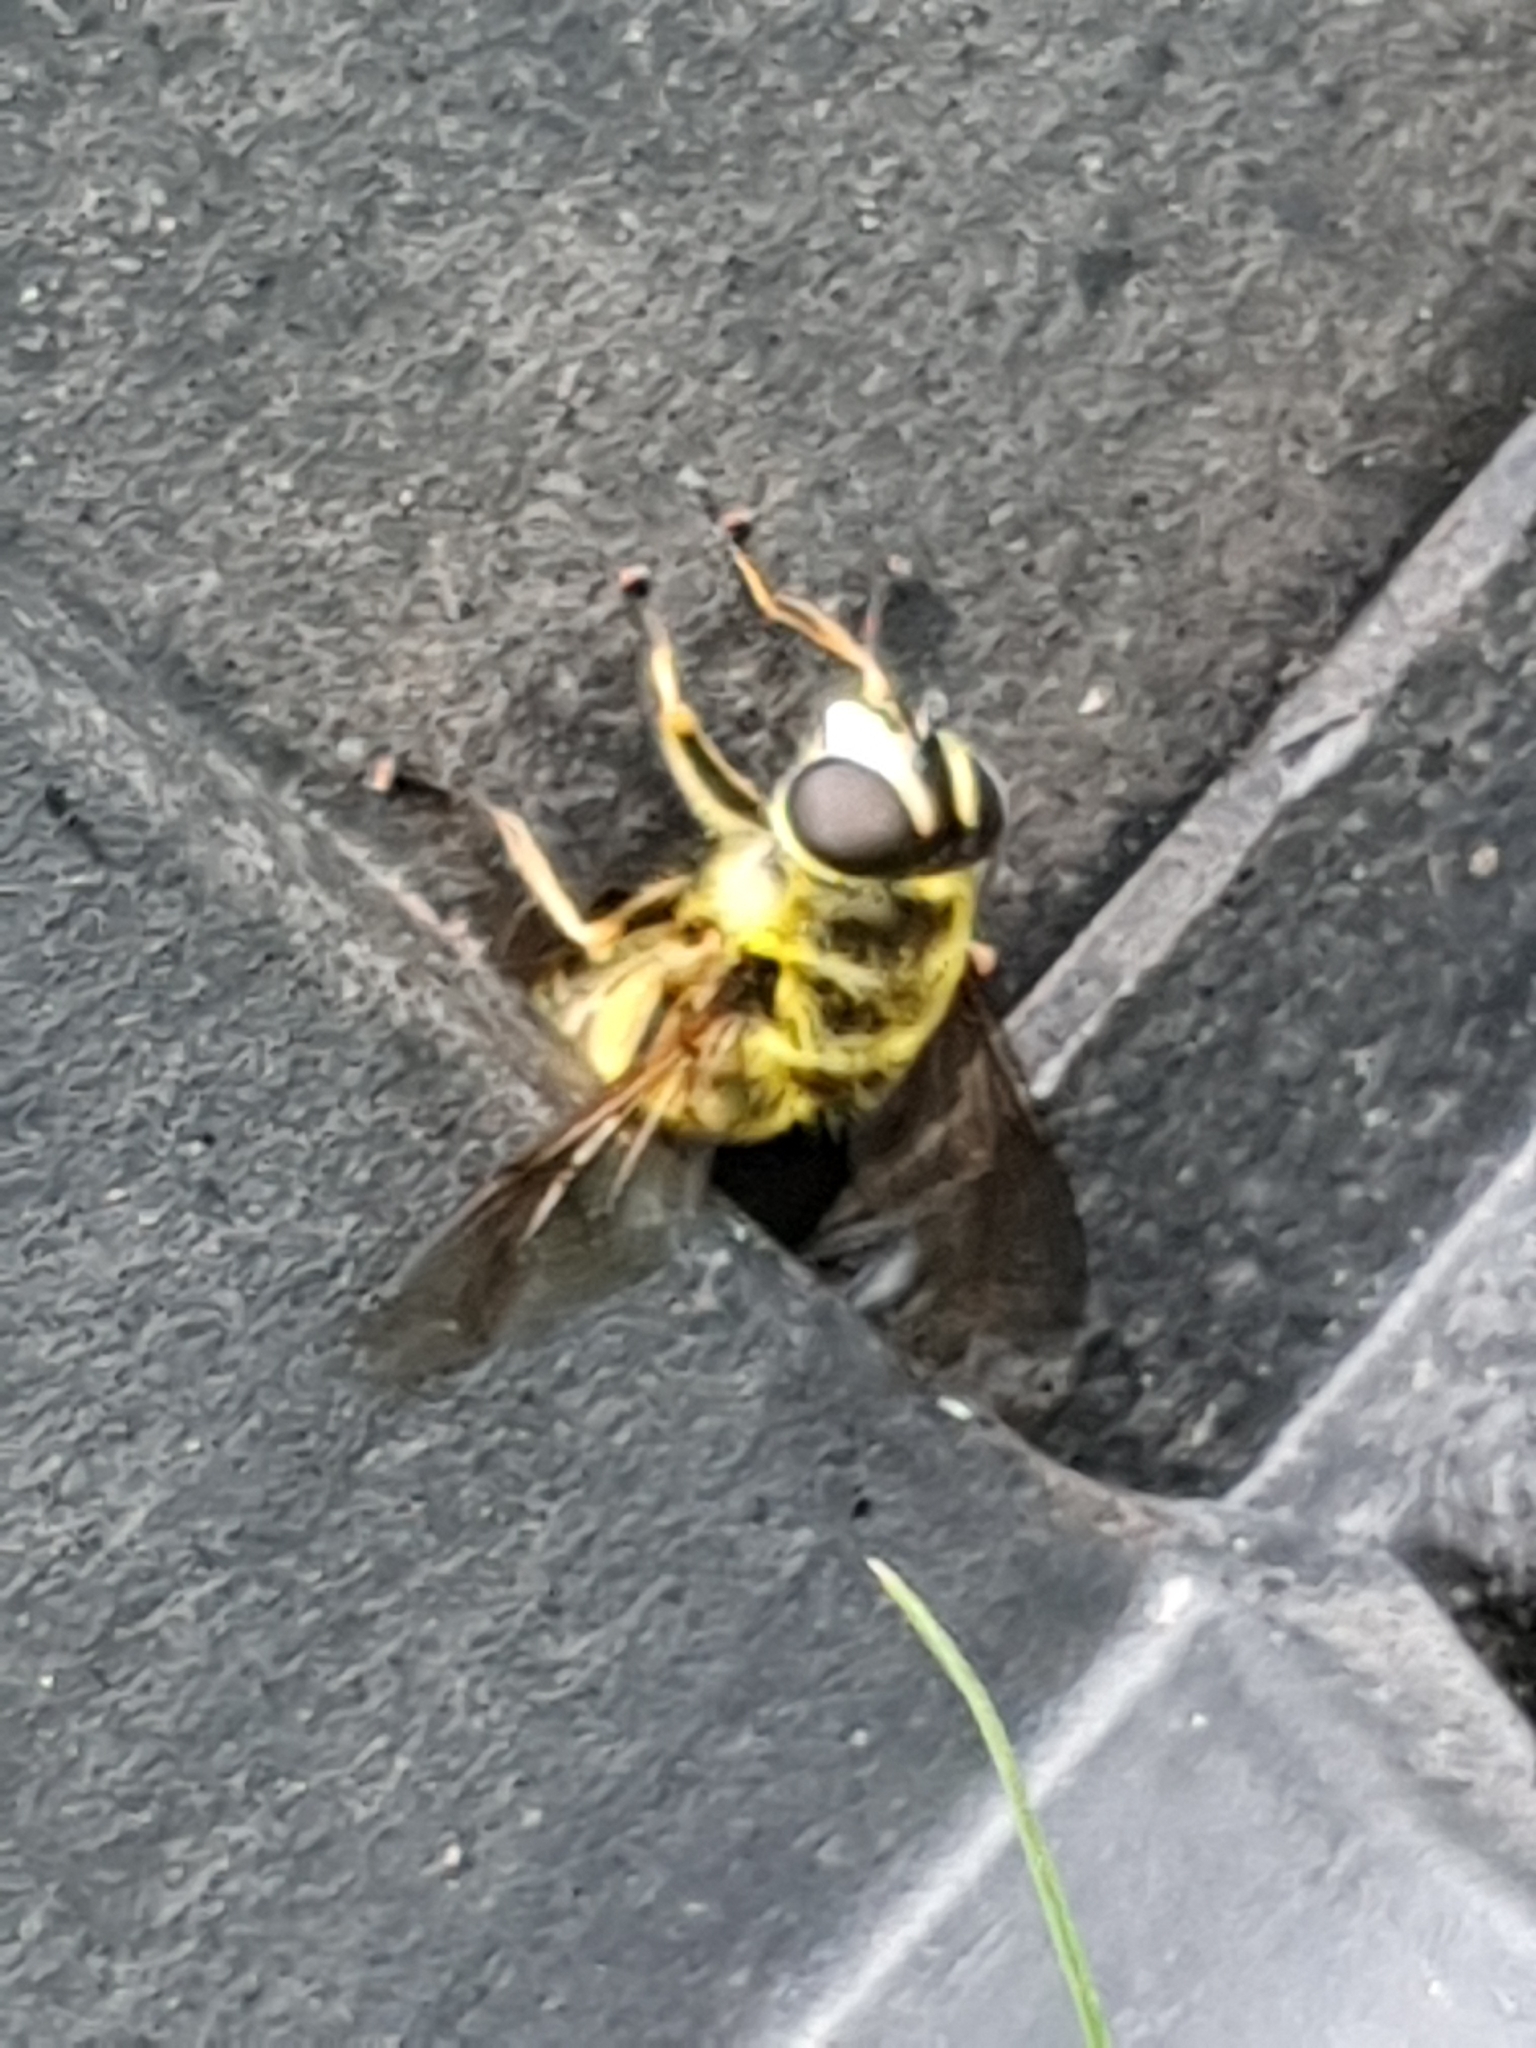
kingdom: Animalia
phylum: Arthropoda
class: Insecta
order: Diptera
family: Syrphidae
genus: Myathropa
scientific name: Myathropa florea
